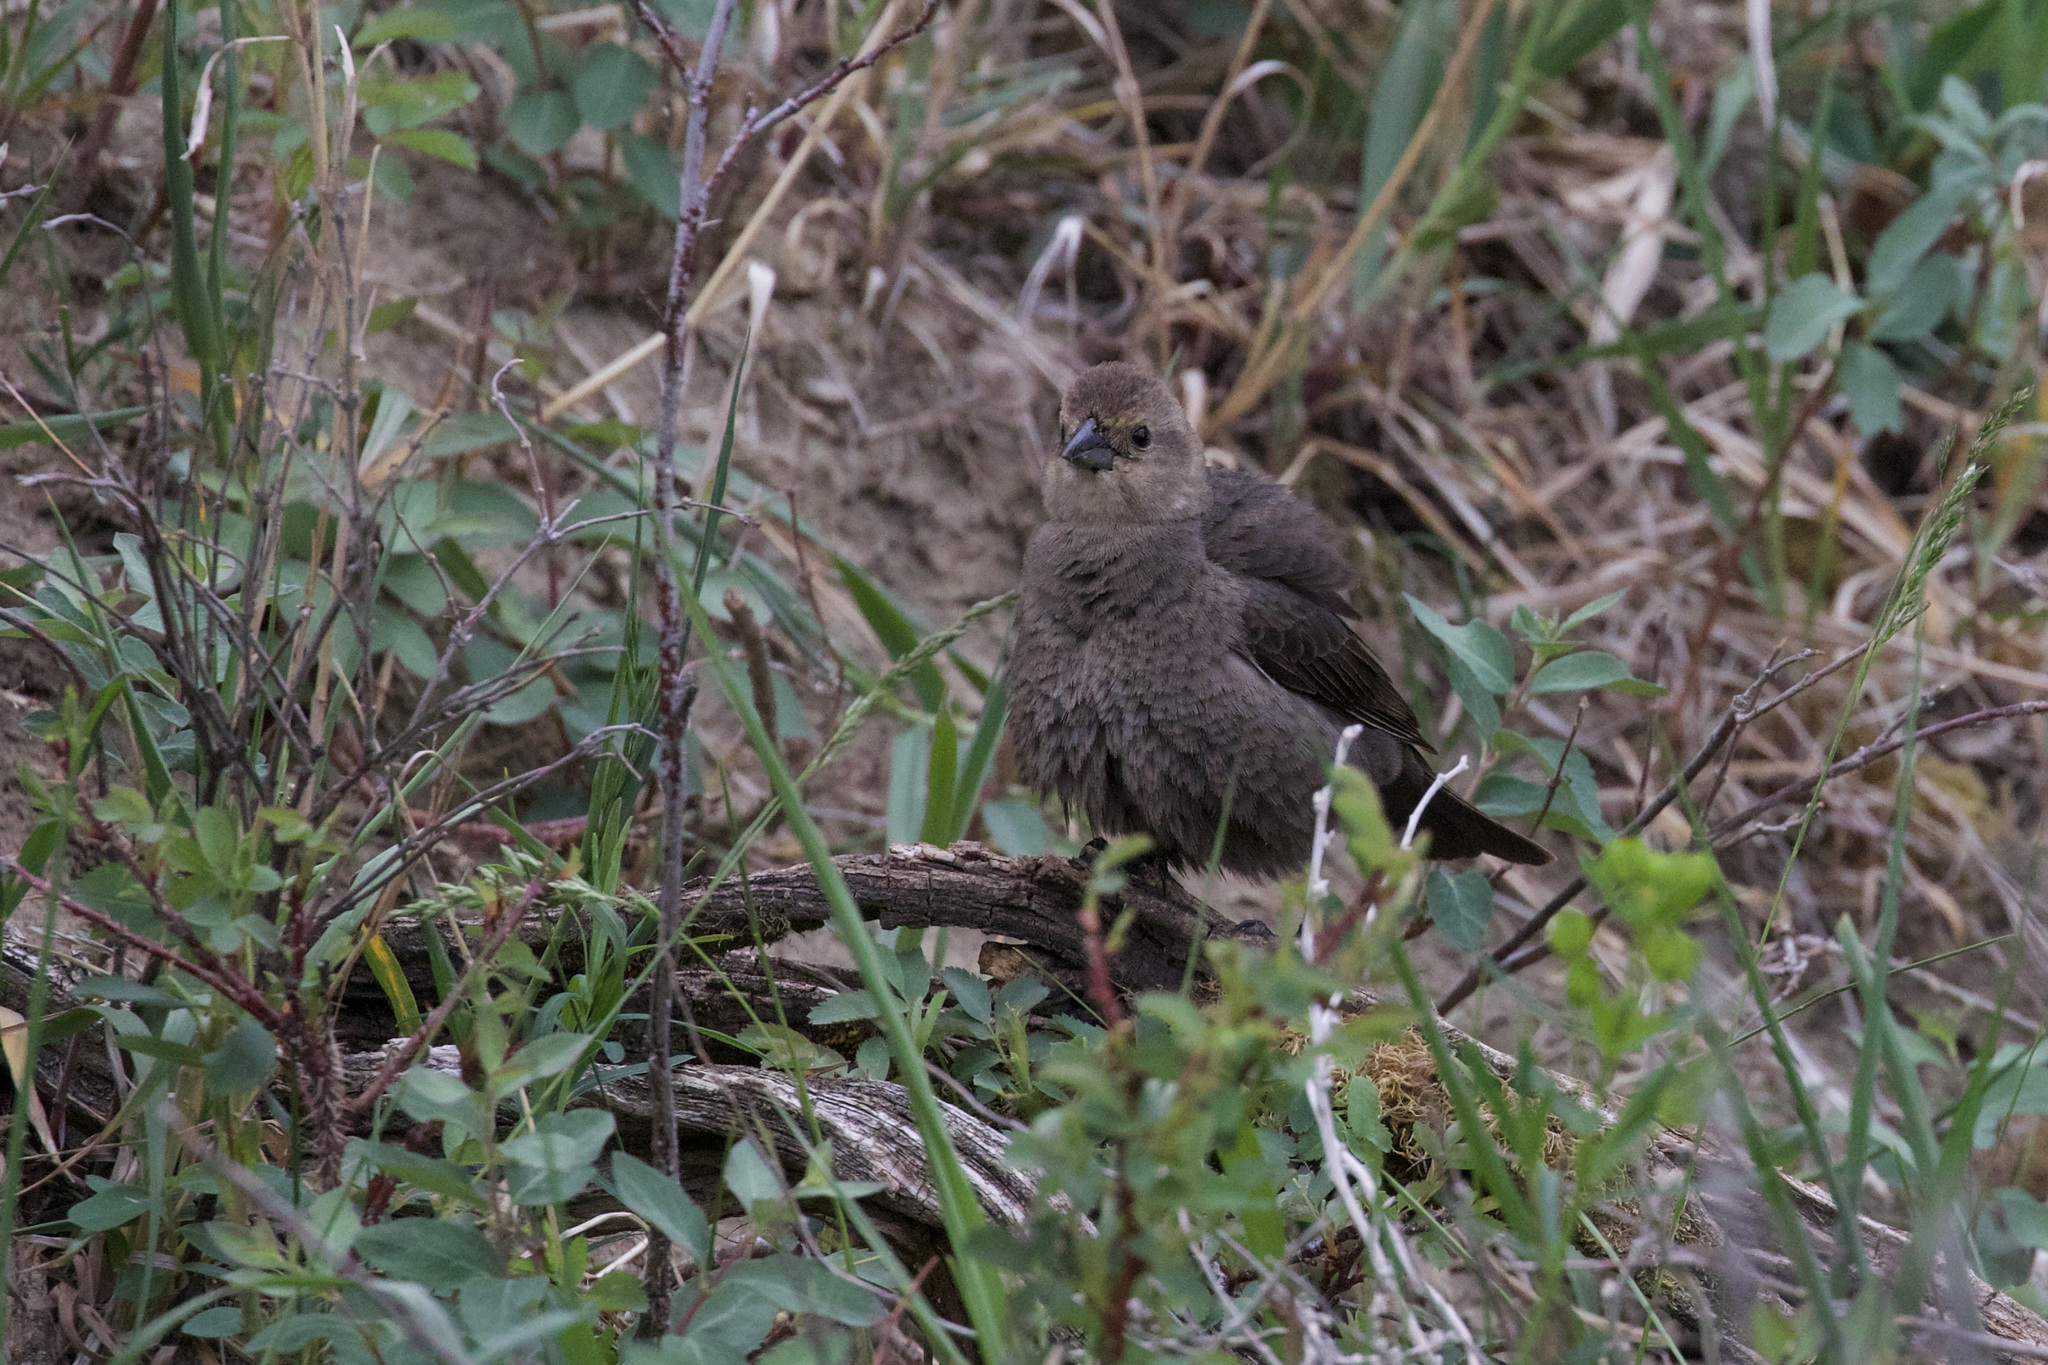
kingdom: Animalia
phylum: Chordata
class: Aves
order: Passeriformes
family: Icteridae
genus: Molothrus
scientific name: Molothrus ater
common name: Brown-headed cowbird
